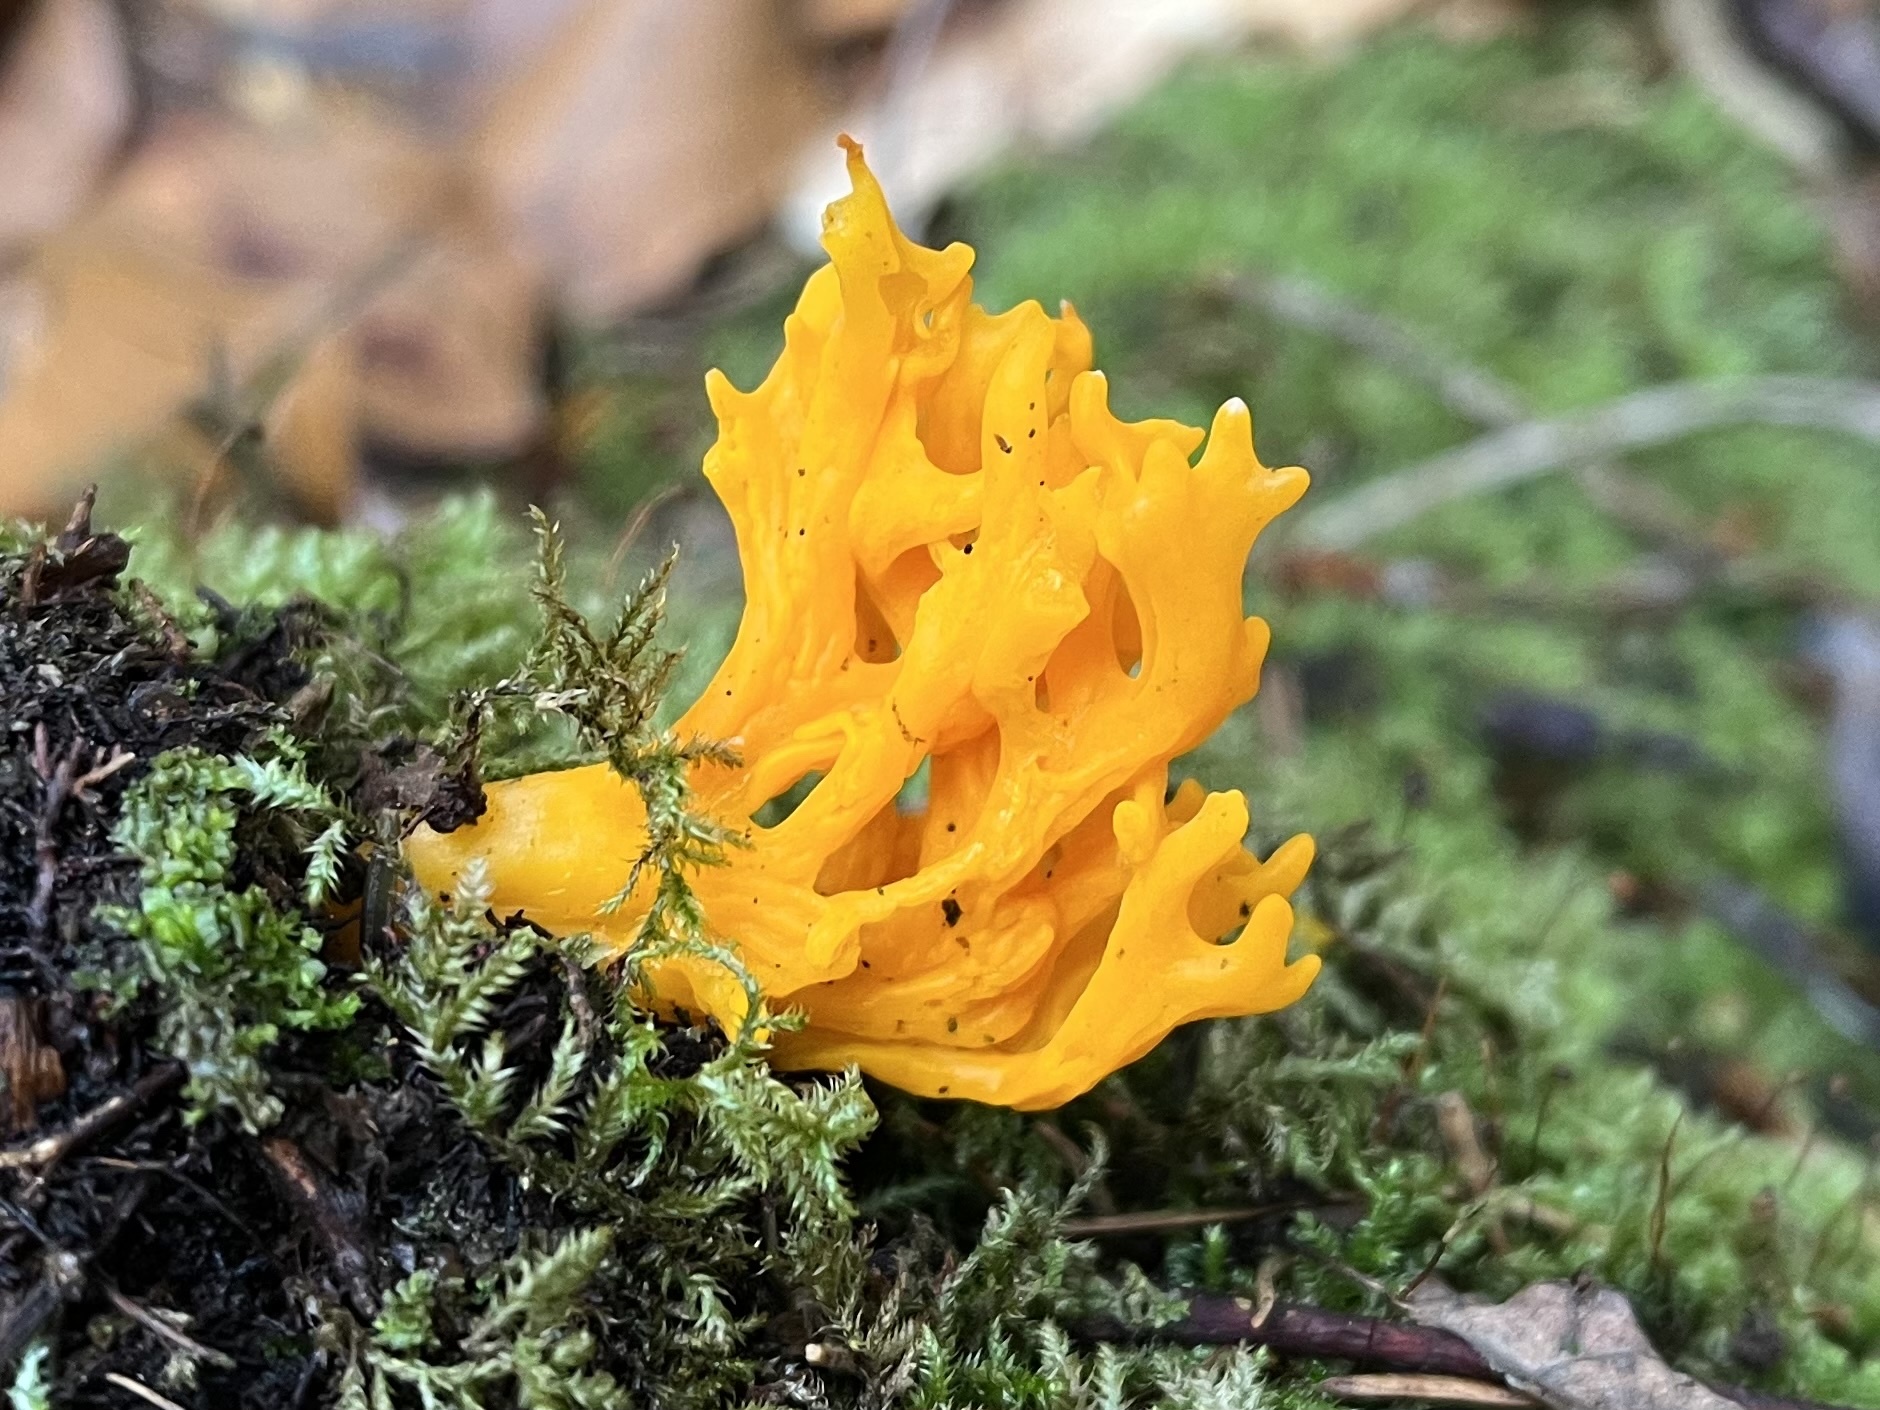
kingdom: Fungi
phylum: Basidiomycota
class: Dacrymycetes
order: Dacrymycetales
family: Dacrymycetaceae
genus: Calocera
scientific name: Calocera viscosa
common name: Yellow stagshorn
